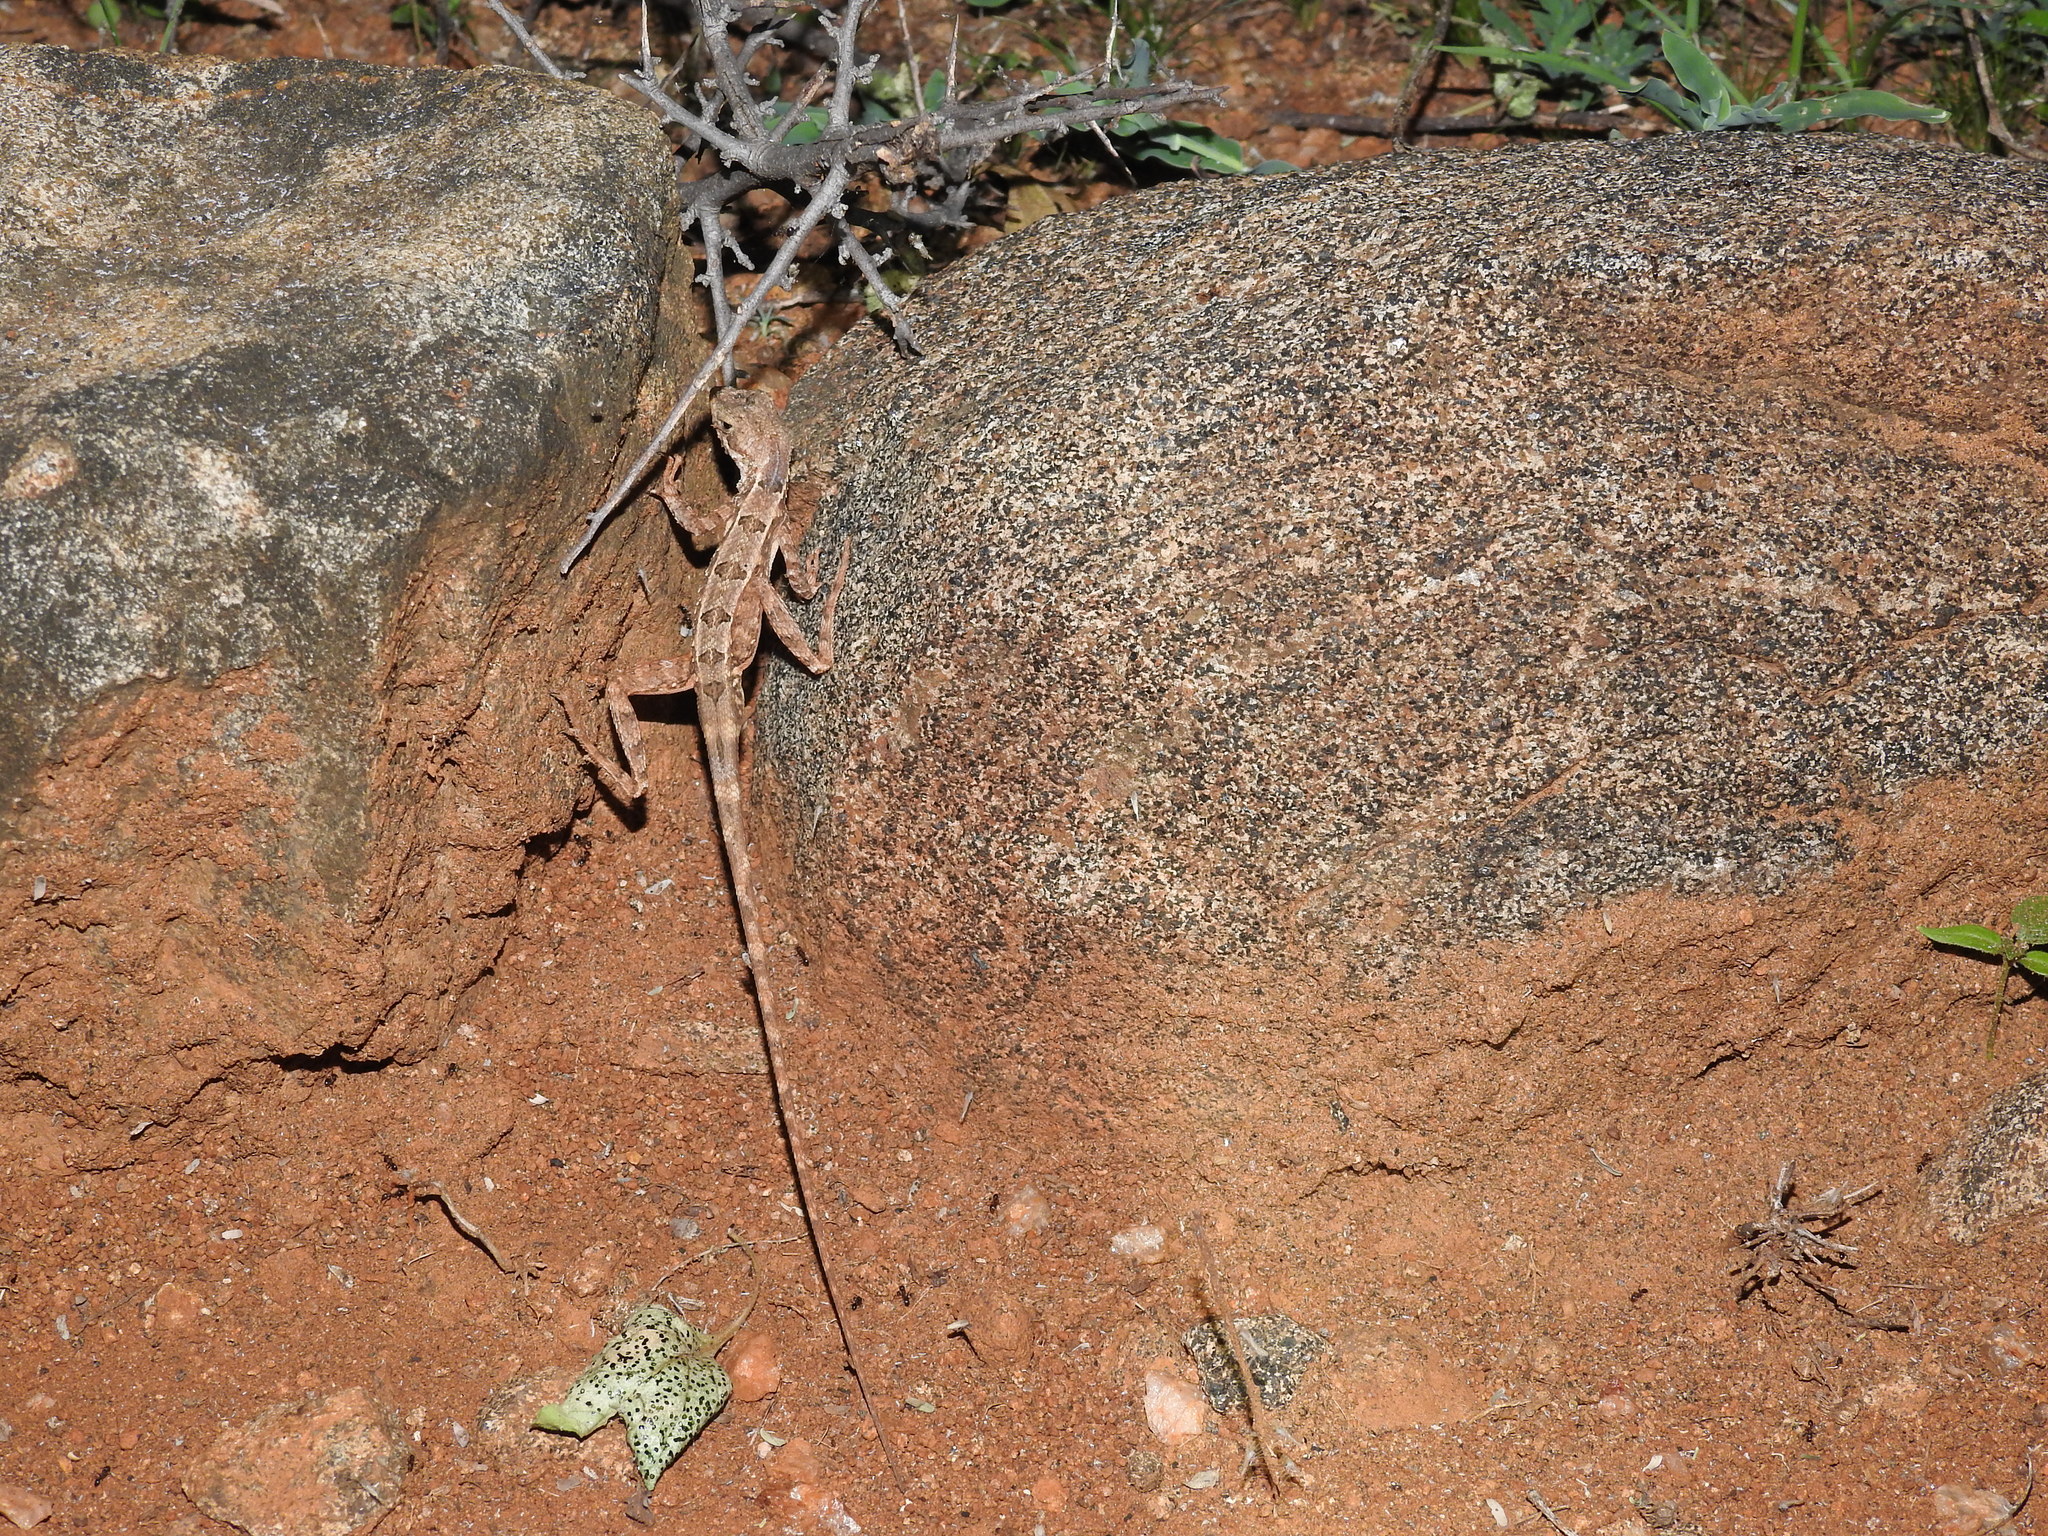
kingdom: Animalia
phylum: Chordata
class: Squamata
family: Agamidae
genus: Sitana
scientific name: Sitana ponticeriana
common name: Pondichéry fan throated lizard
